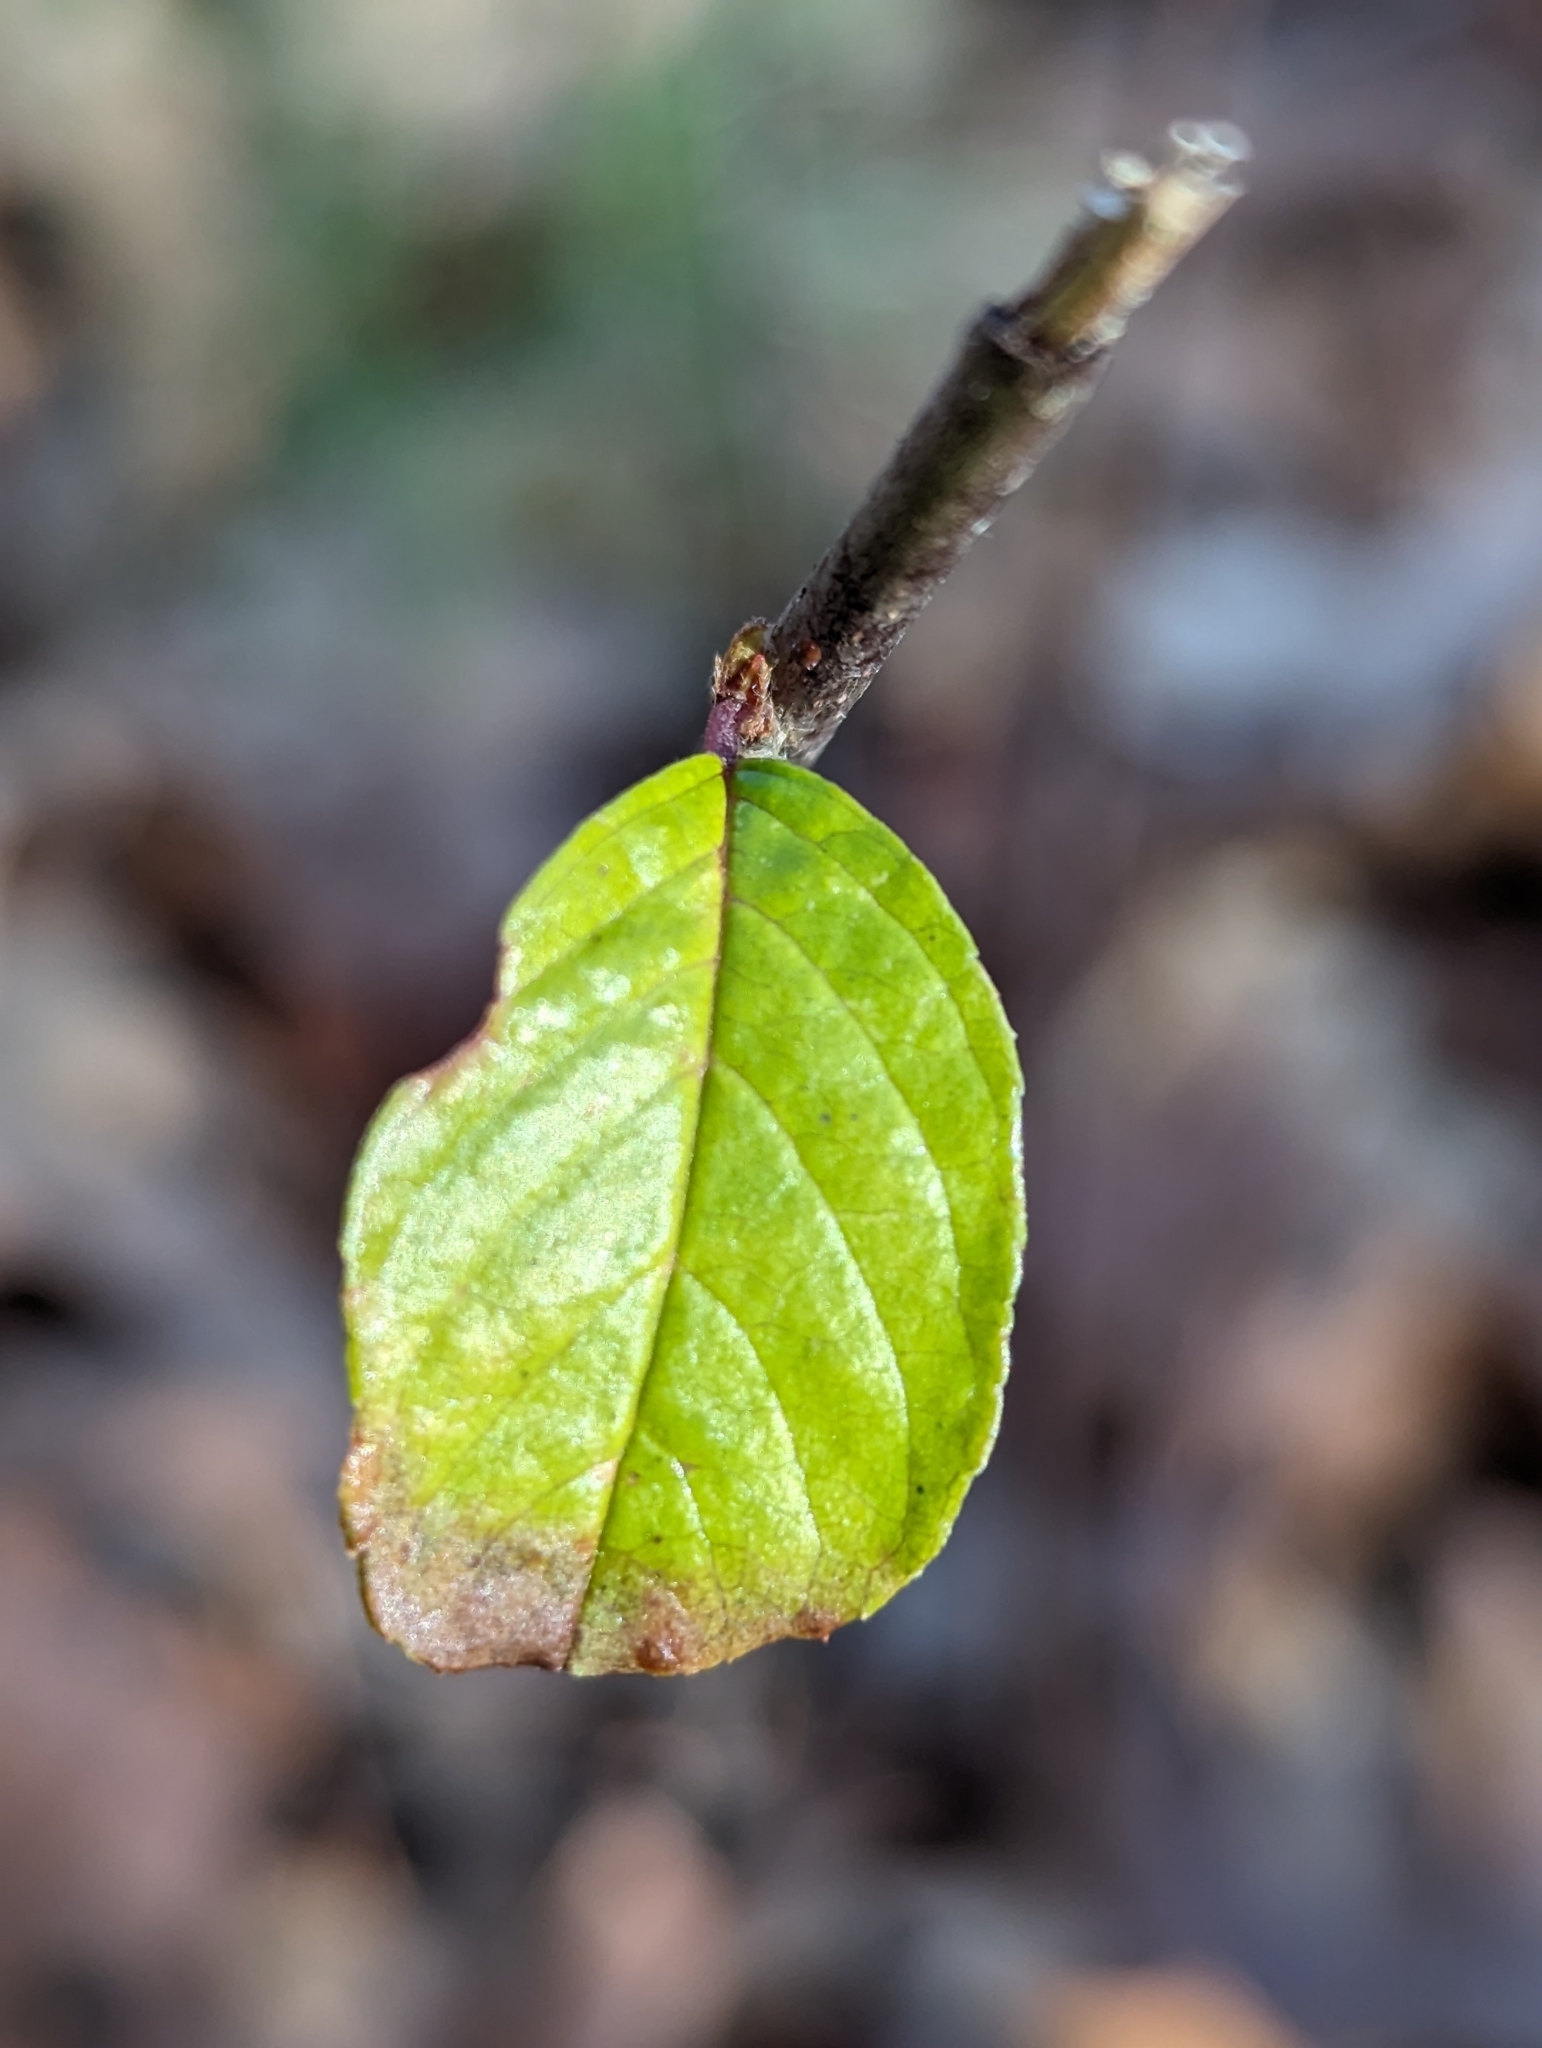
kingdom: Plantae
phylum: Tracheophyta
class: Magnoliopsida
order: Rosales
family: Rhamnaceae
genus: Frangula
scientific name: Frangula alnus
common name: Alder buckthorn
